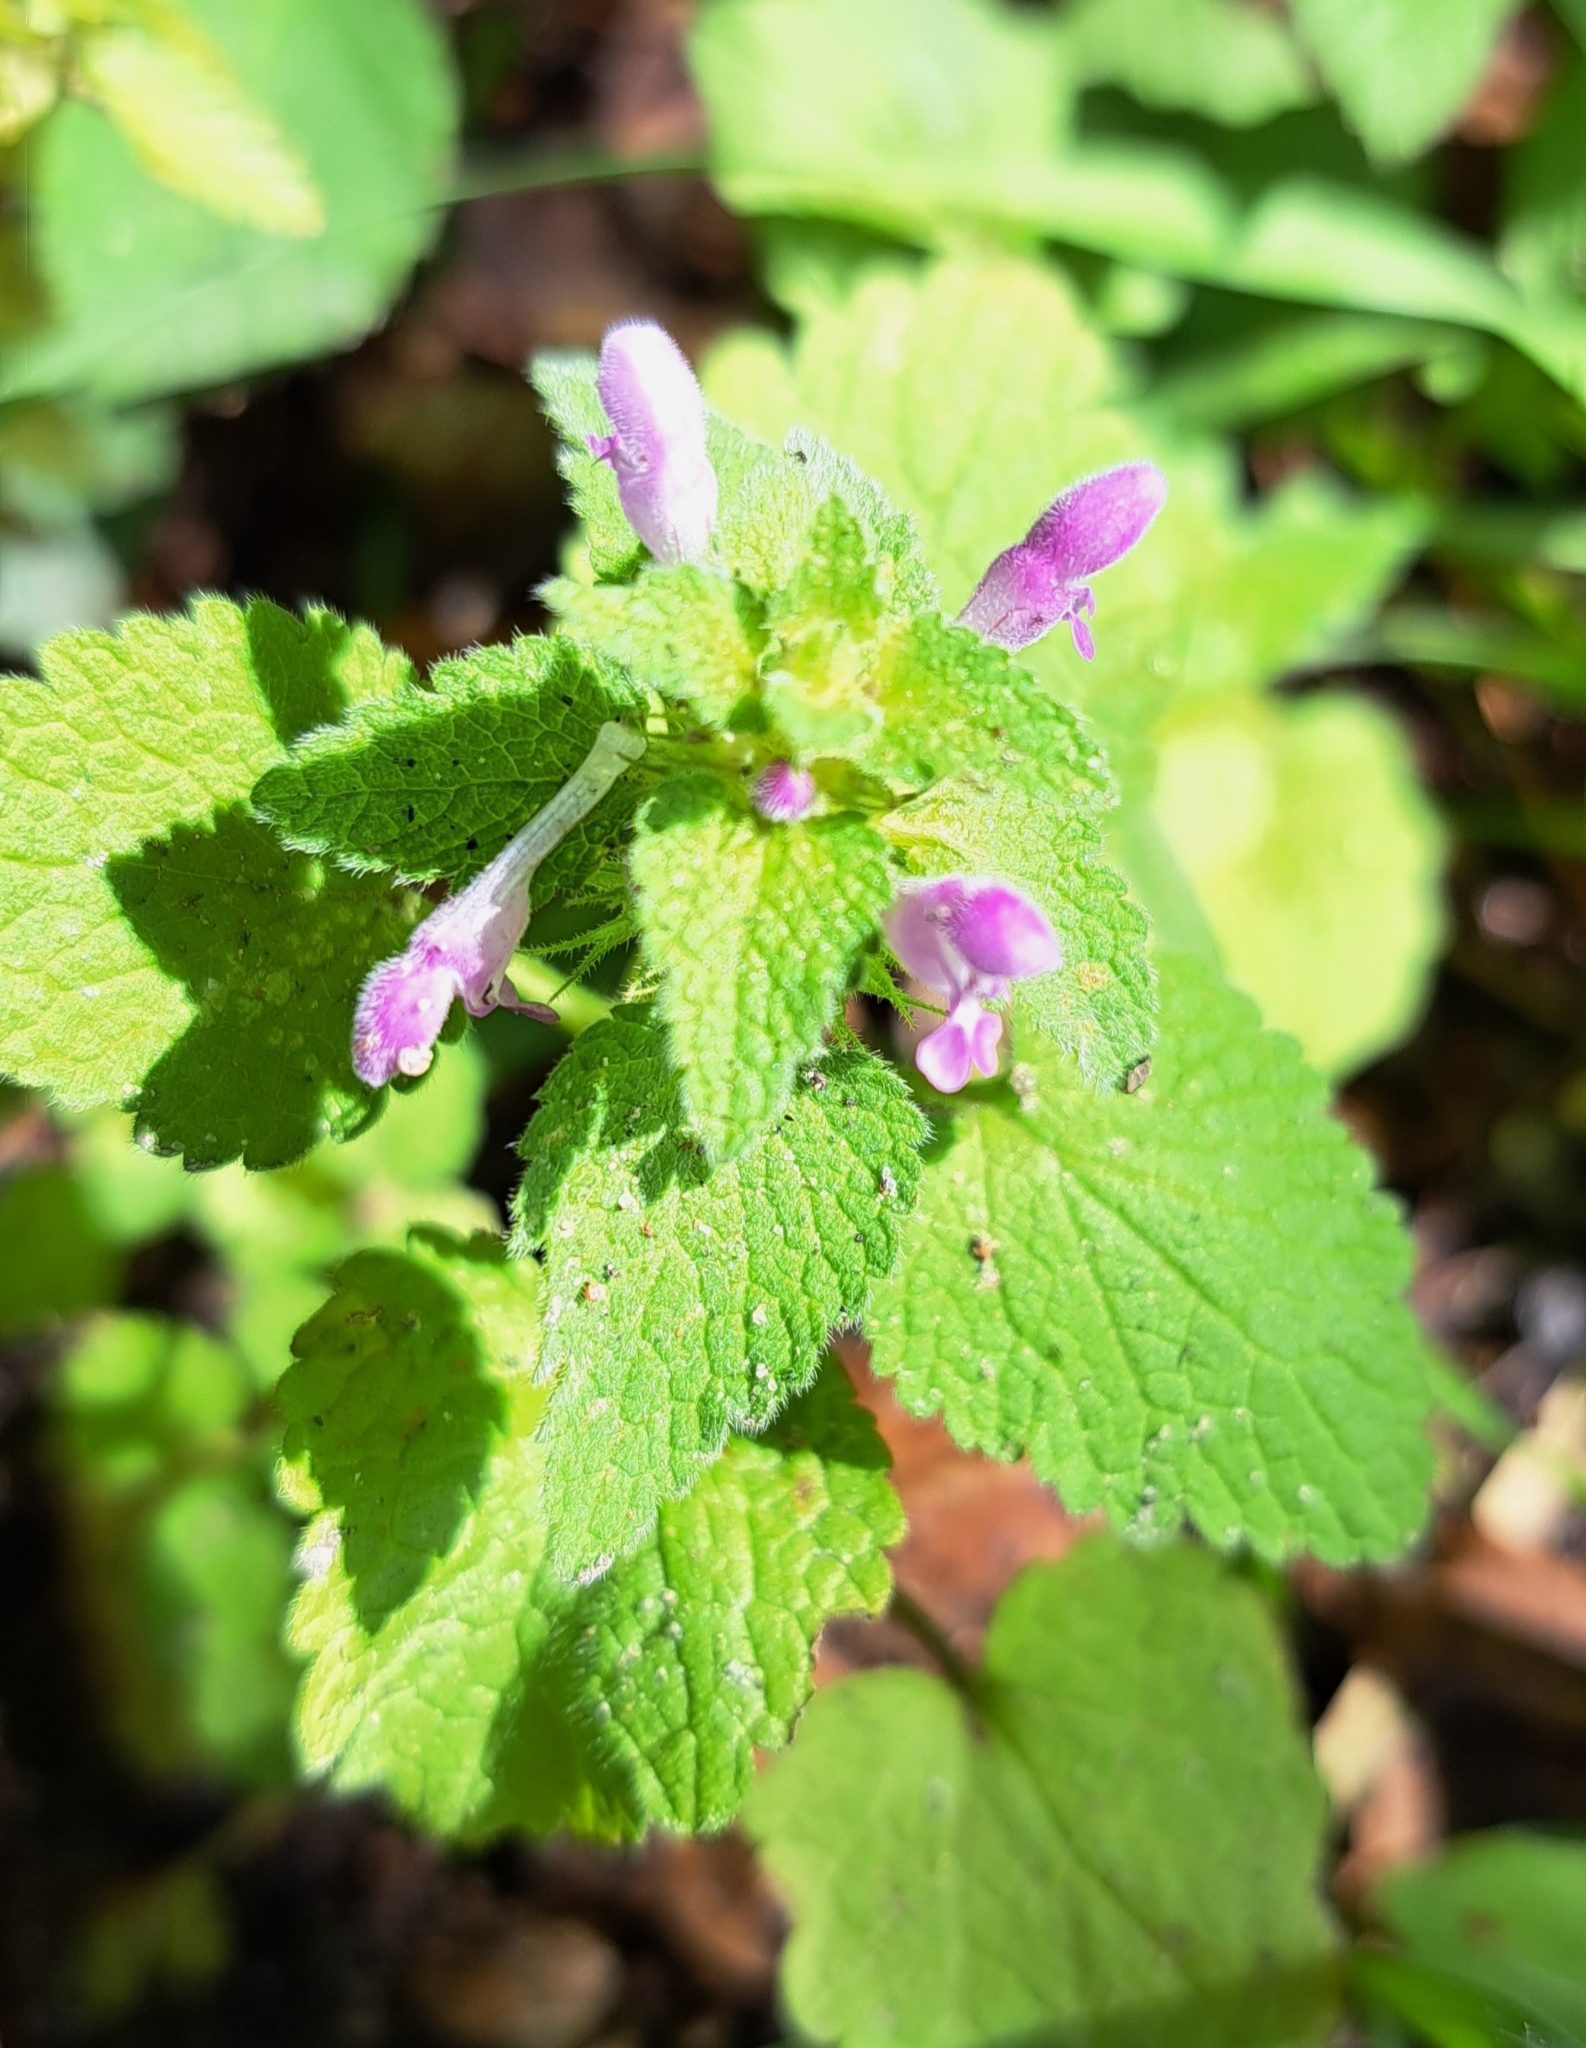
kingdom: Plantae
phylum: Tracheophyta
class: Magnoliopsida
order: Lamiales
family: Lamiaceae
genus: Lamium
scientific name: Lamium purpureum
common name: Red dead-nettle
